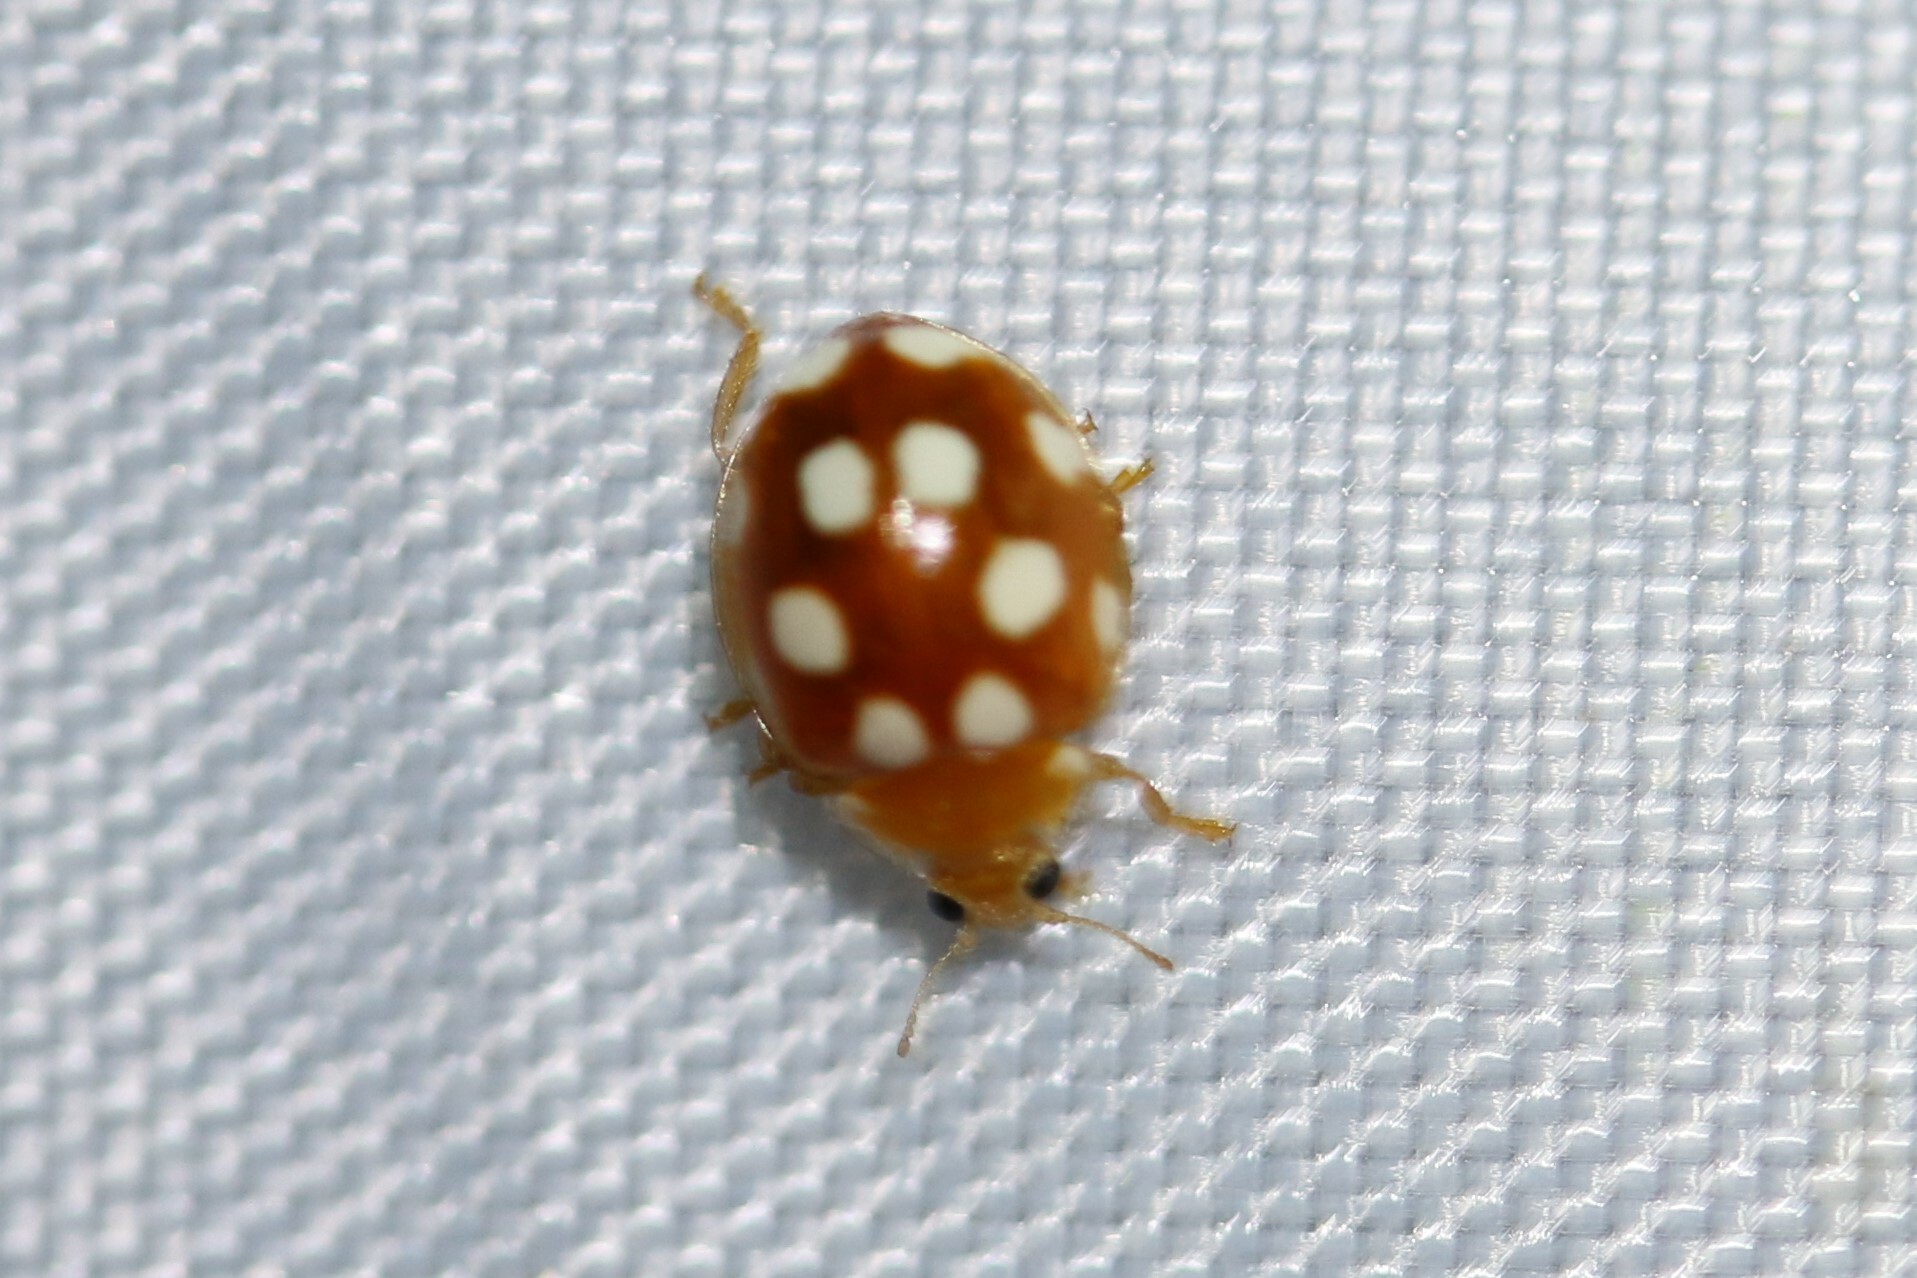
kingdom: Animalia
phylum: Arthropoda
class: Insecta
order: Coleoptera
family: Coccinellidae
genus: Vibidia
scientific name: Vibidia duodecimguttata
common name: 12-spot ladybird
